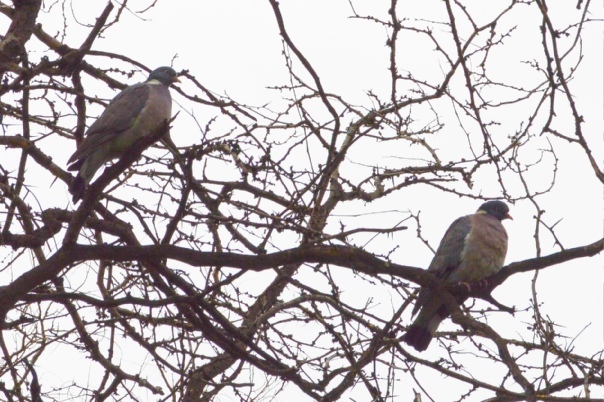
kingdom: Animalia
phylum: Chordata
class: Aves
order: Columbiformes
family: Columbidae
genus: Columba
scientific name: Columba palumbus
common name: Common wood pigeon
